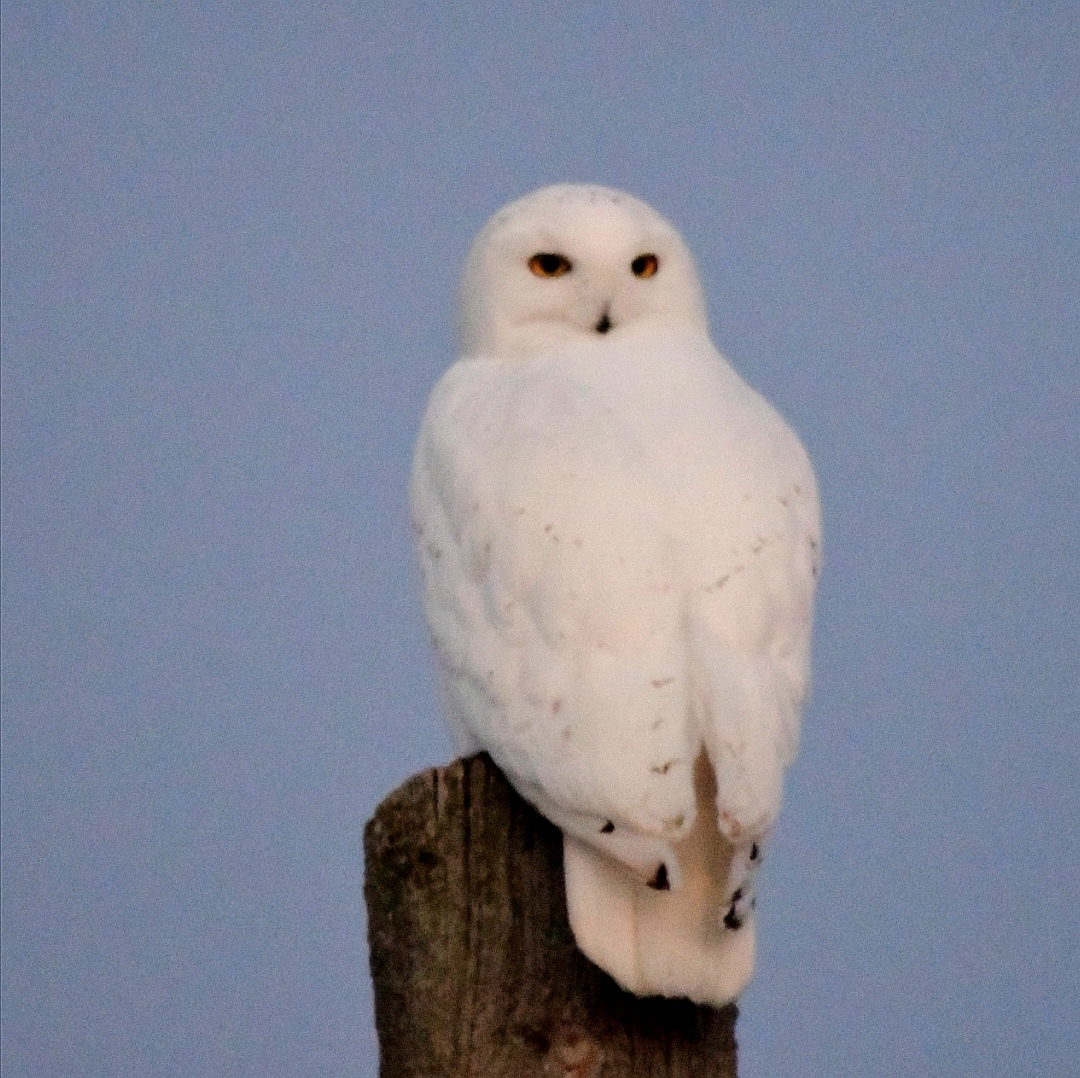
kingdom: Animalia
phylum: Chordata
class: Aves
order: Strigiformes
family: Strigidae
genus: Bubo
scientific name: Bubo scandiacus
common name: Snowy owl
